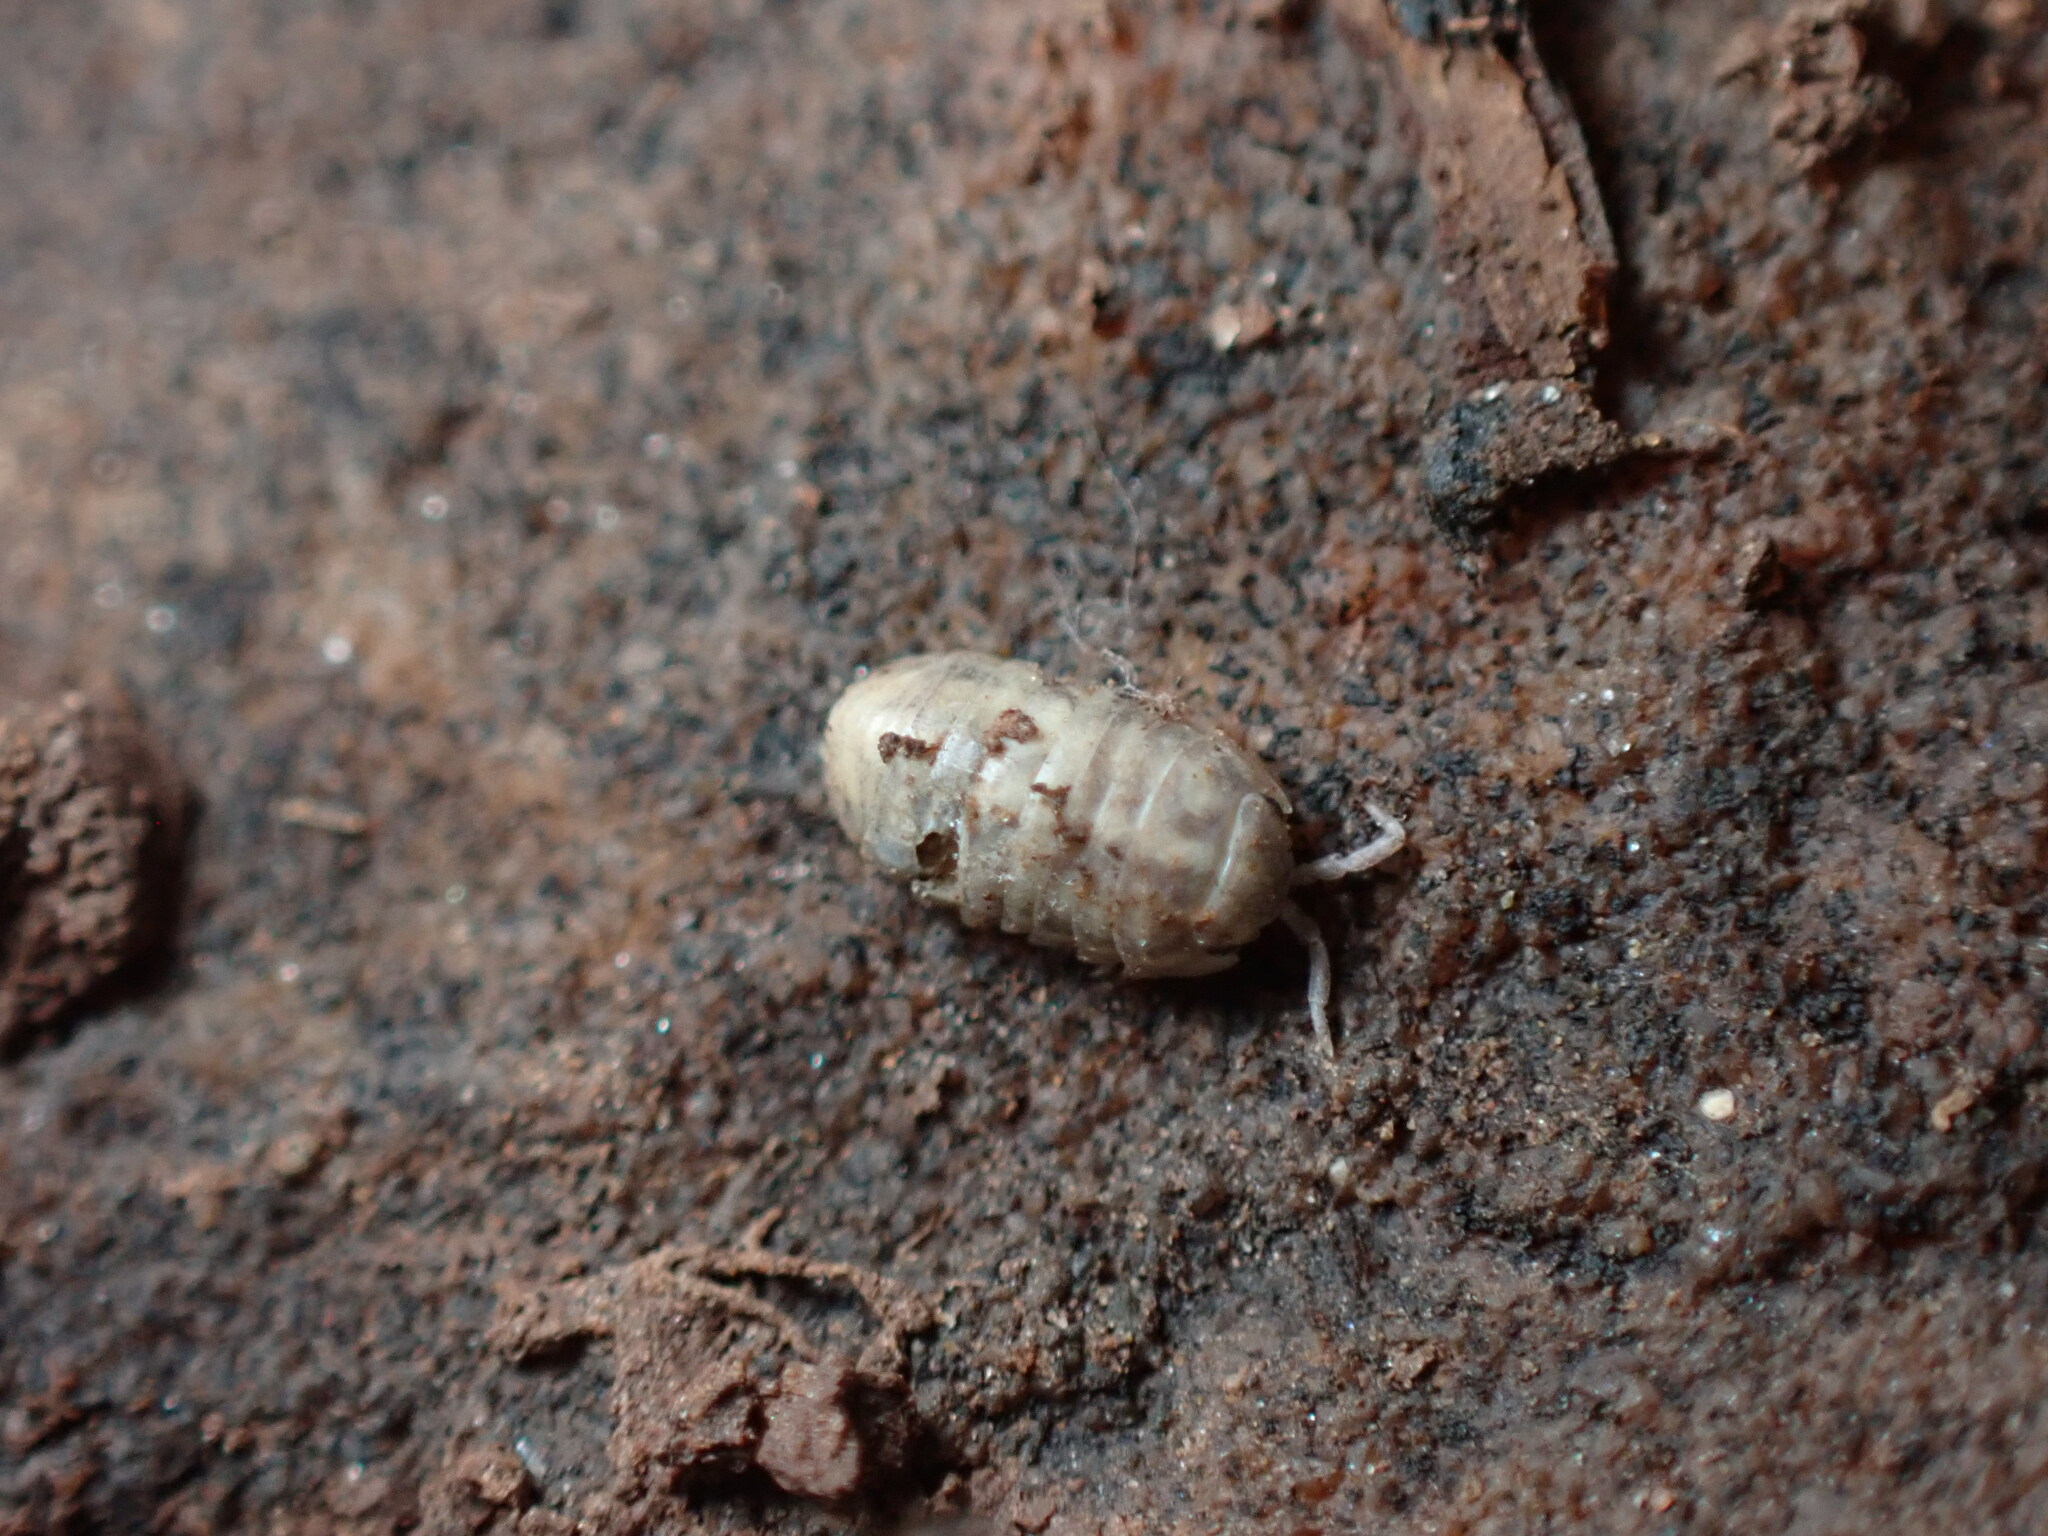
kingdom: Animalia
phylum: Arthropoda
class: Malacostraca
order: Isopoda
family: Armadillidiidae
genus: Armadillidium
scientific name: Armadillidium vulgare
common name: Common pill woodlouse
